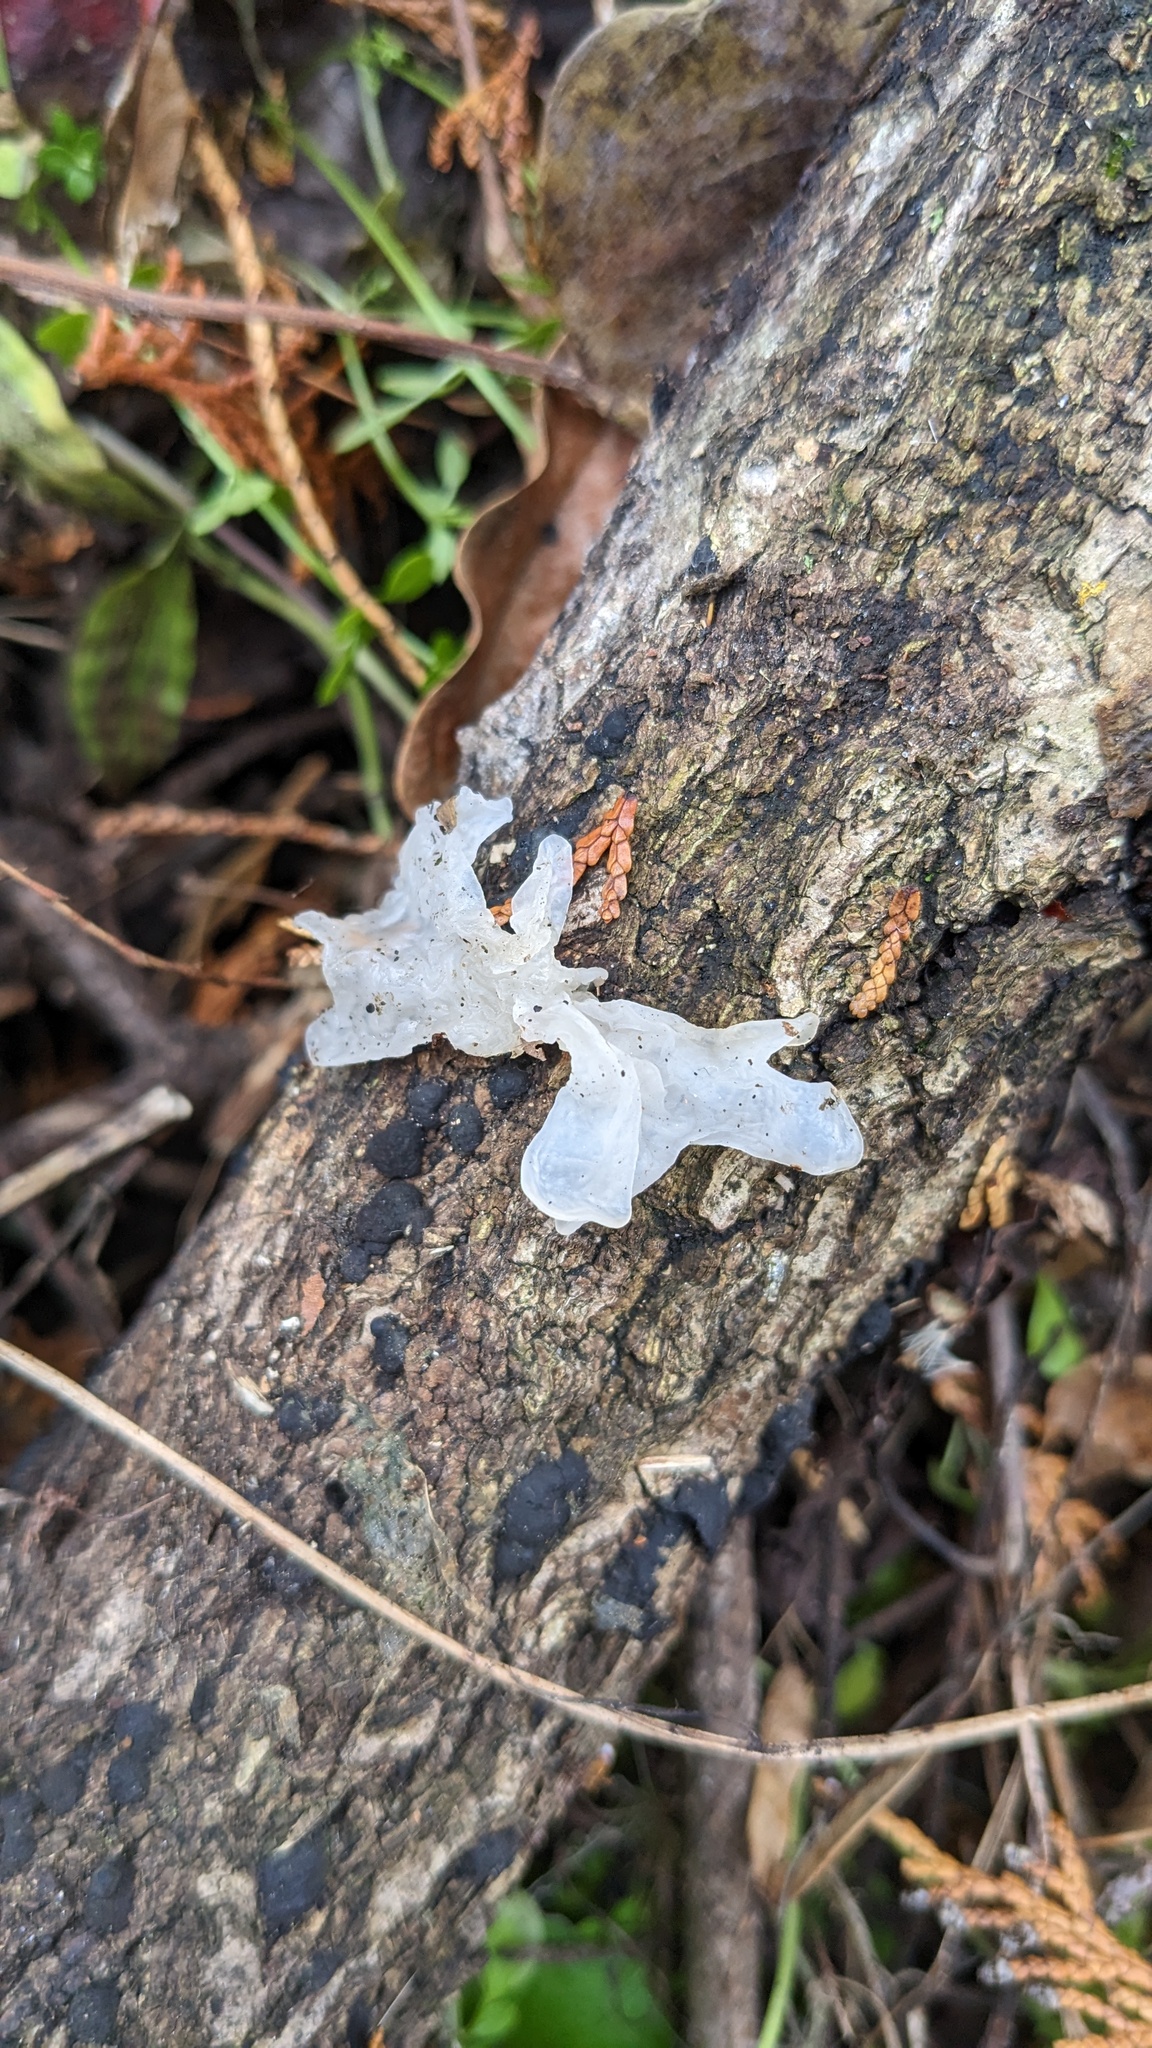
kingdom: Fungi
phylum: Basidiomycota
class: Tremellomycetes
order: Tremellales
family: Tremellaceae
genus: Tremella
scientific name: Tremella fuciformis
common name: Snow fungus
